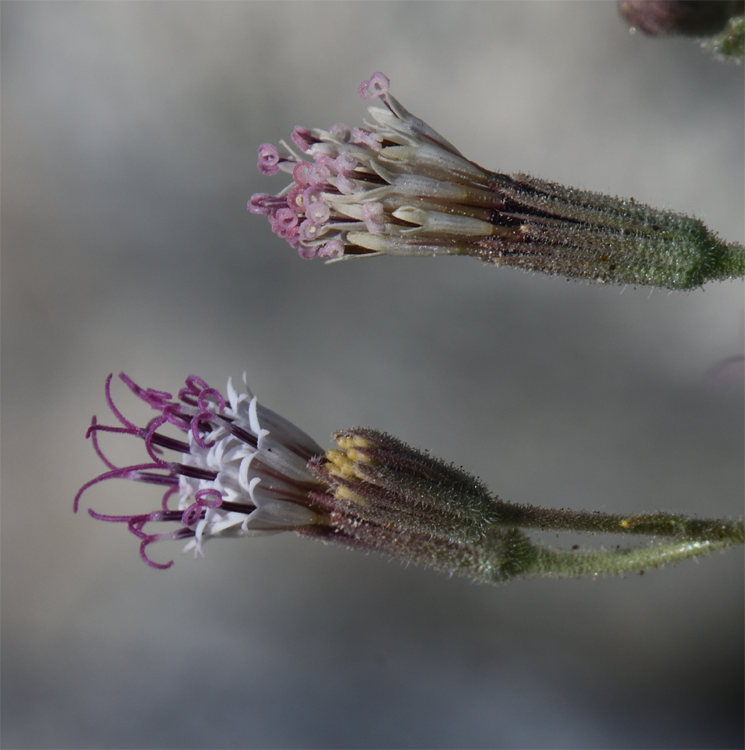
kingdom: Plantae
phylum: Tracheophyta
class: Magnoliopsida
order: Asterales
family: Asteraceae
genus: Palafoxia
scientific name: Palafoxia arida
